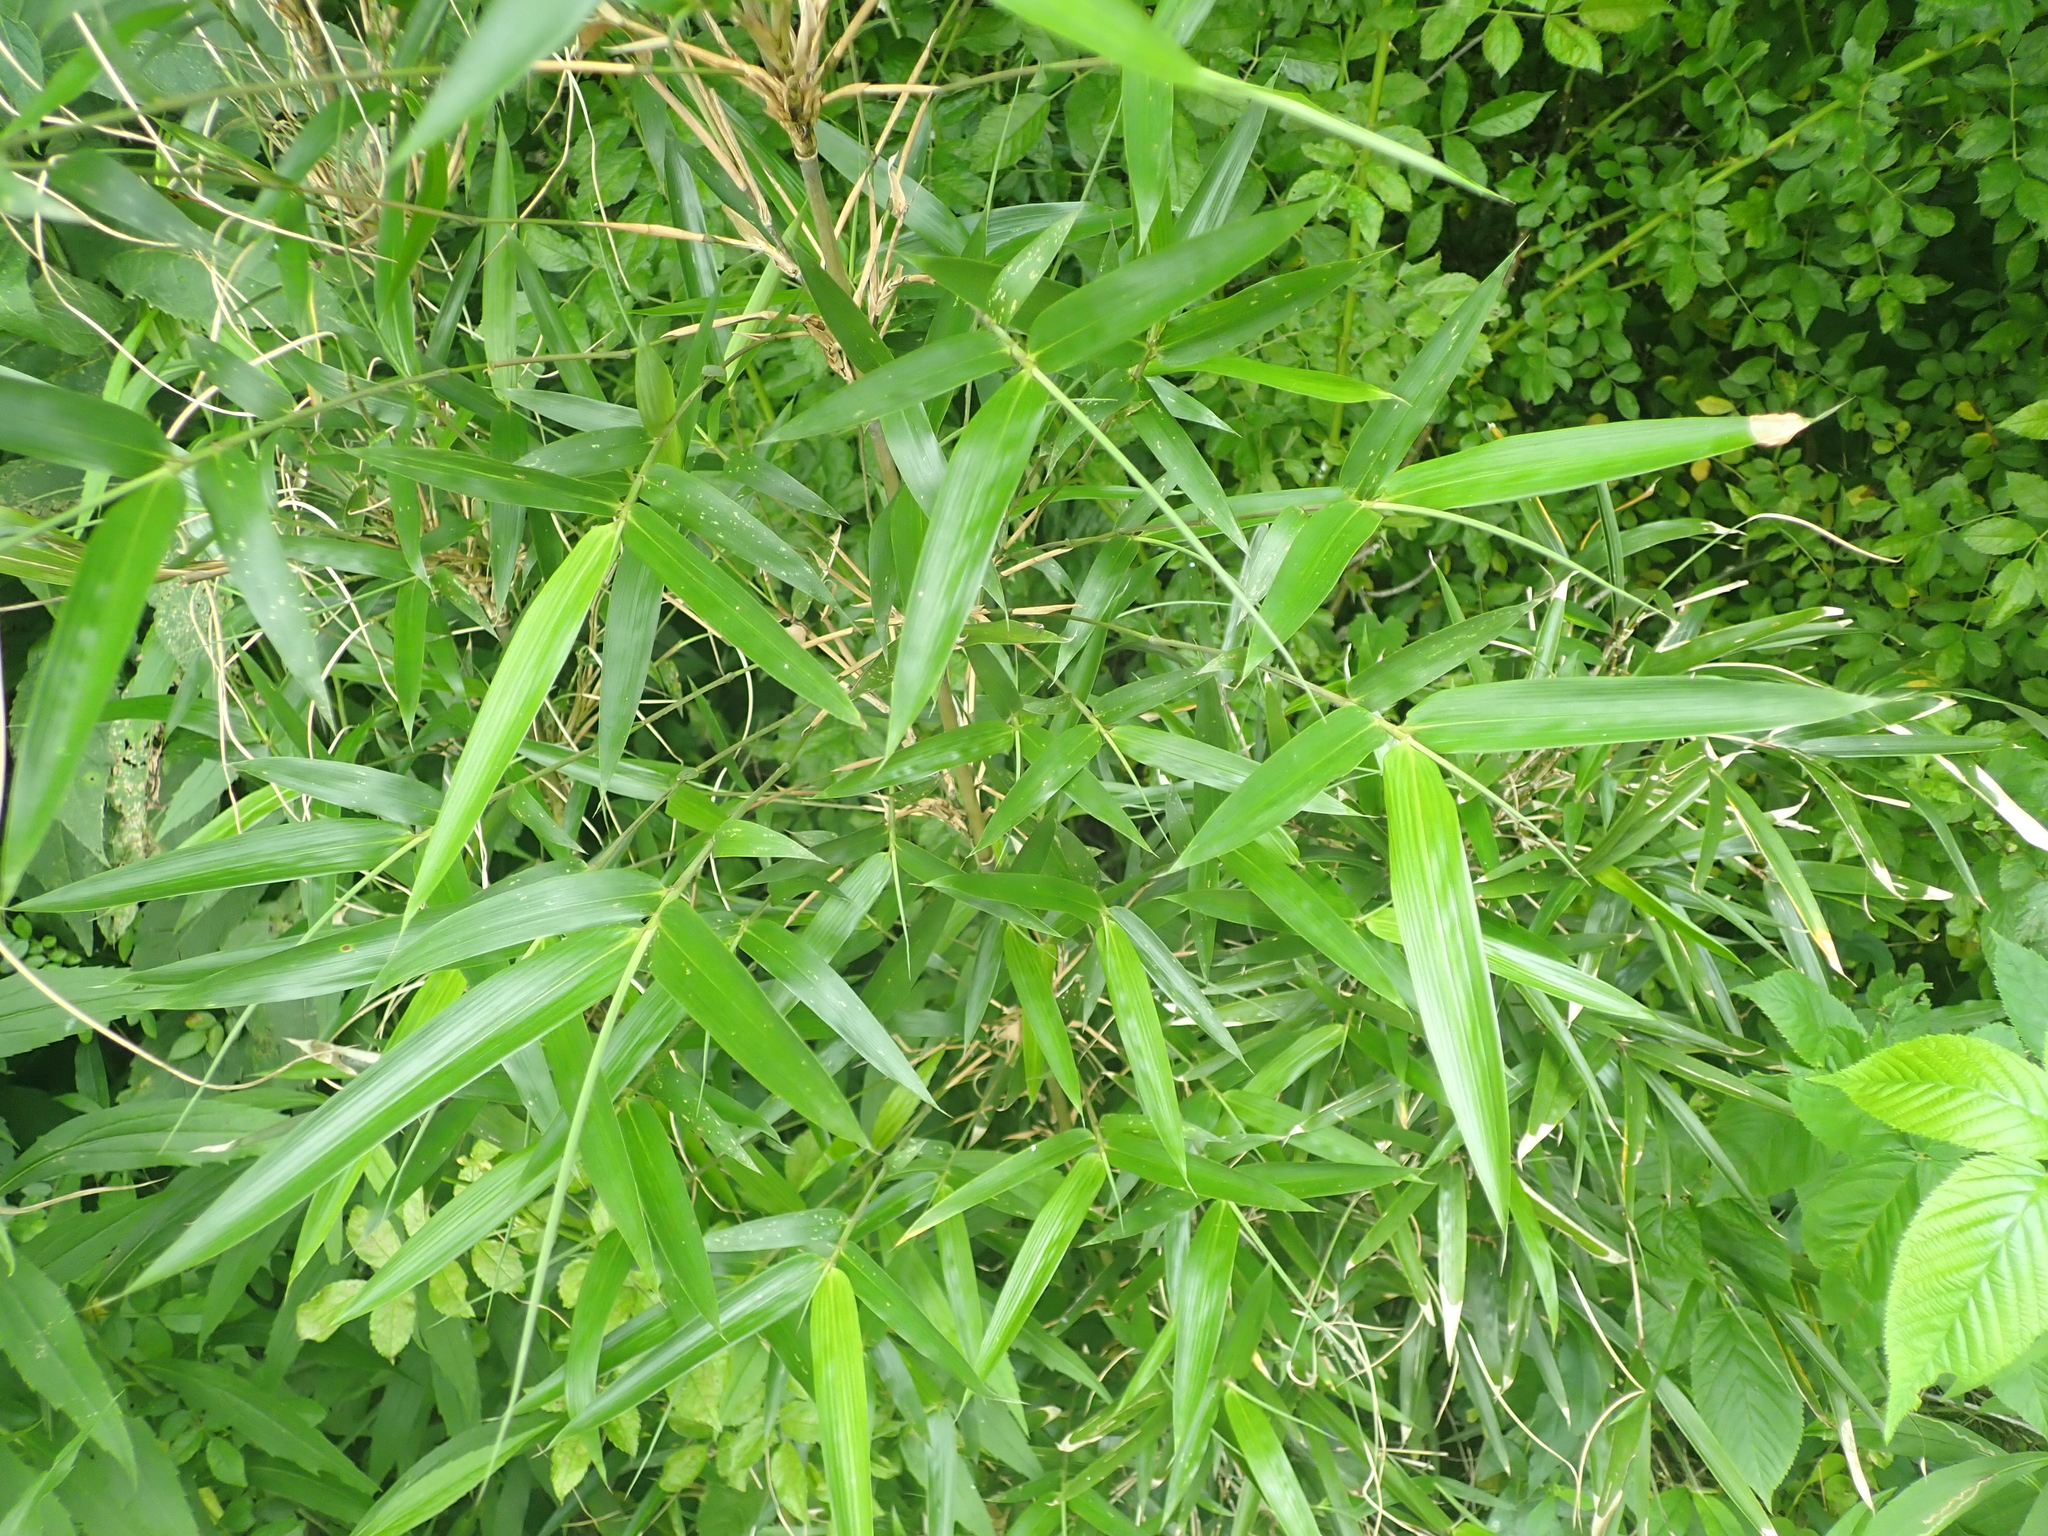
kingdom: Plantae
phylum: Tracheophyta
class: Liliopsida
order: Poales
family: Poaceae
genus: Arundinaria
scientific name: Arundinaria gigantea
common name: Giant cane
